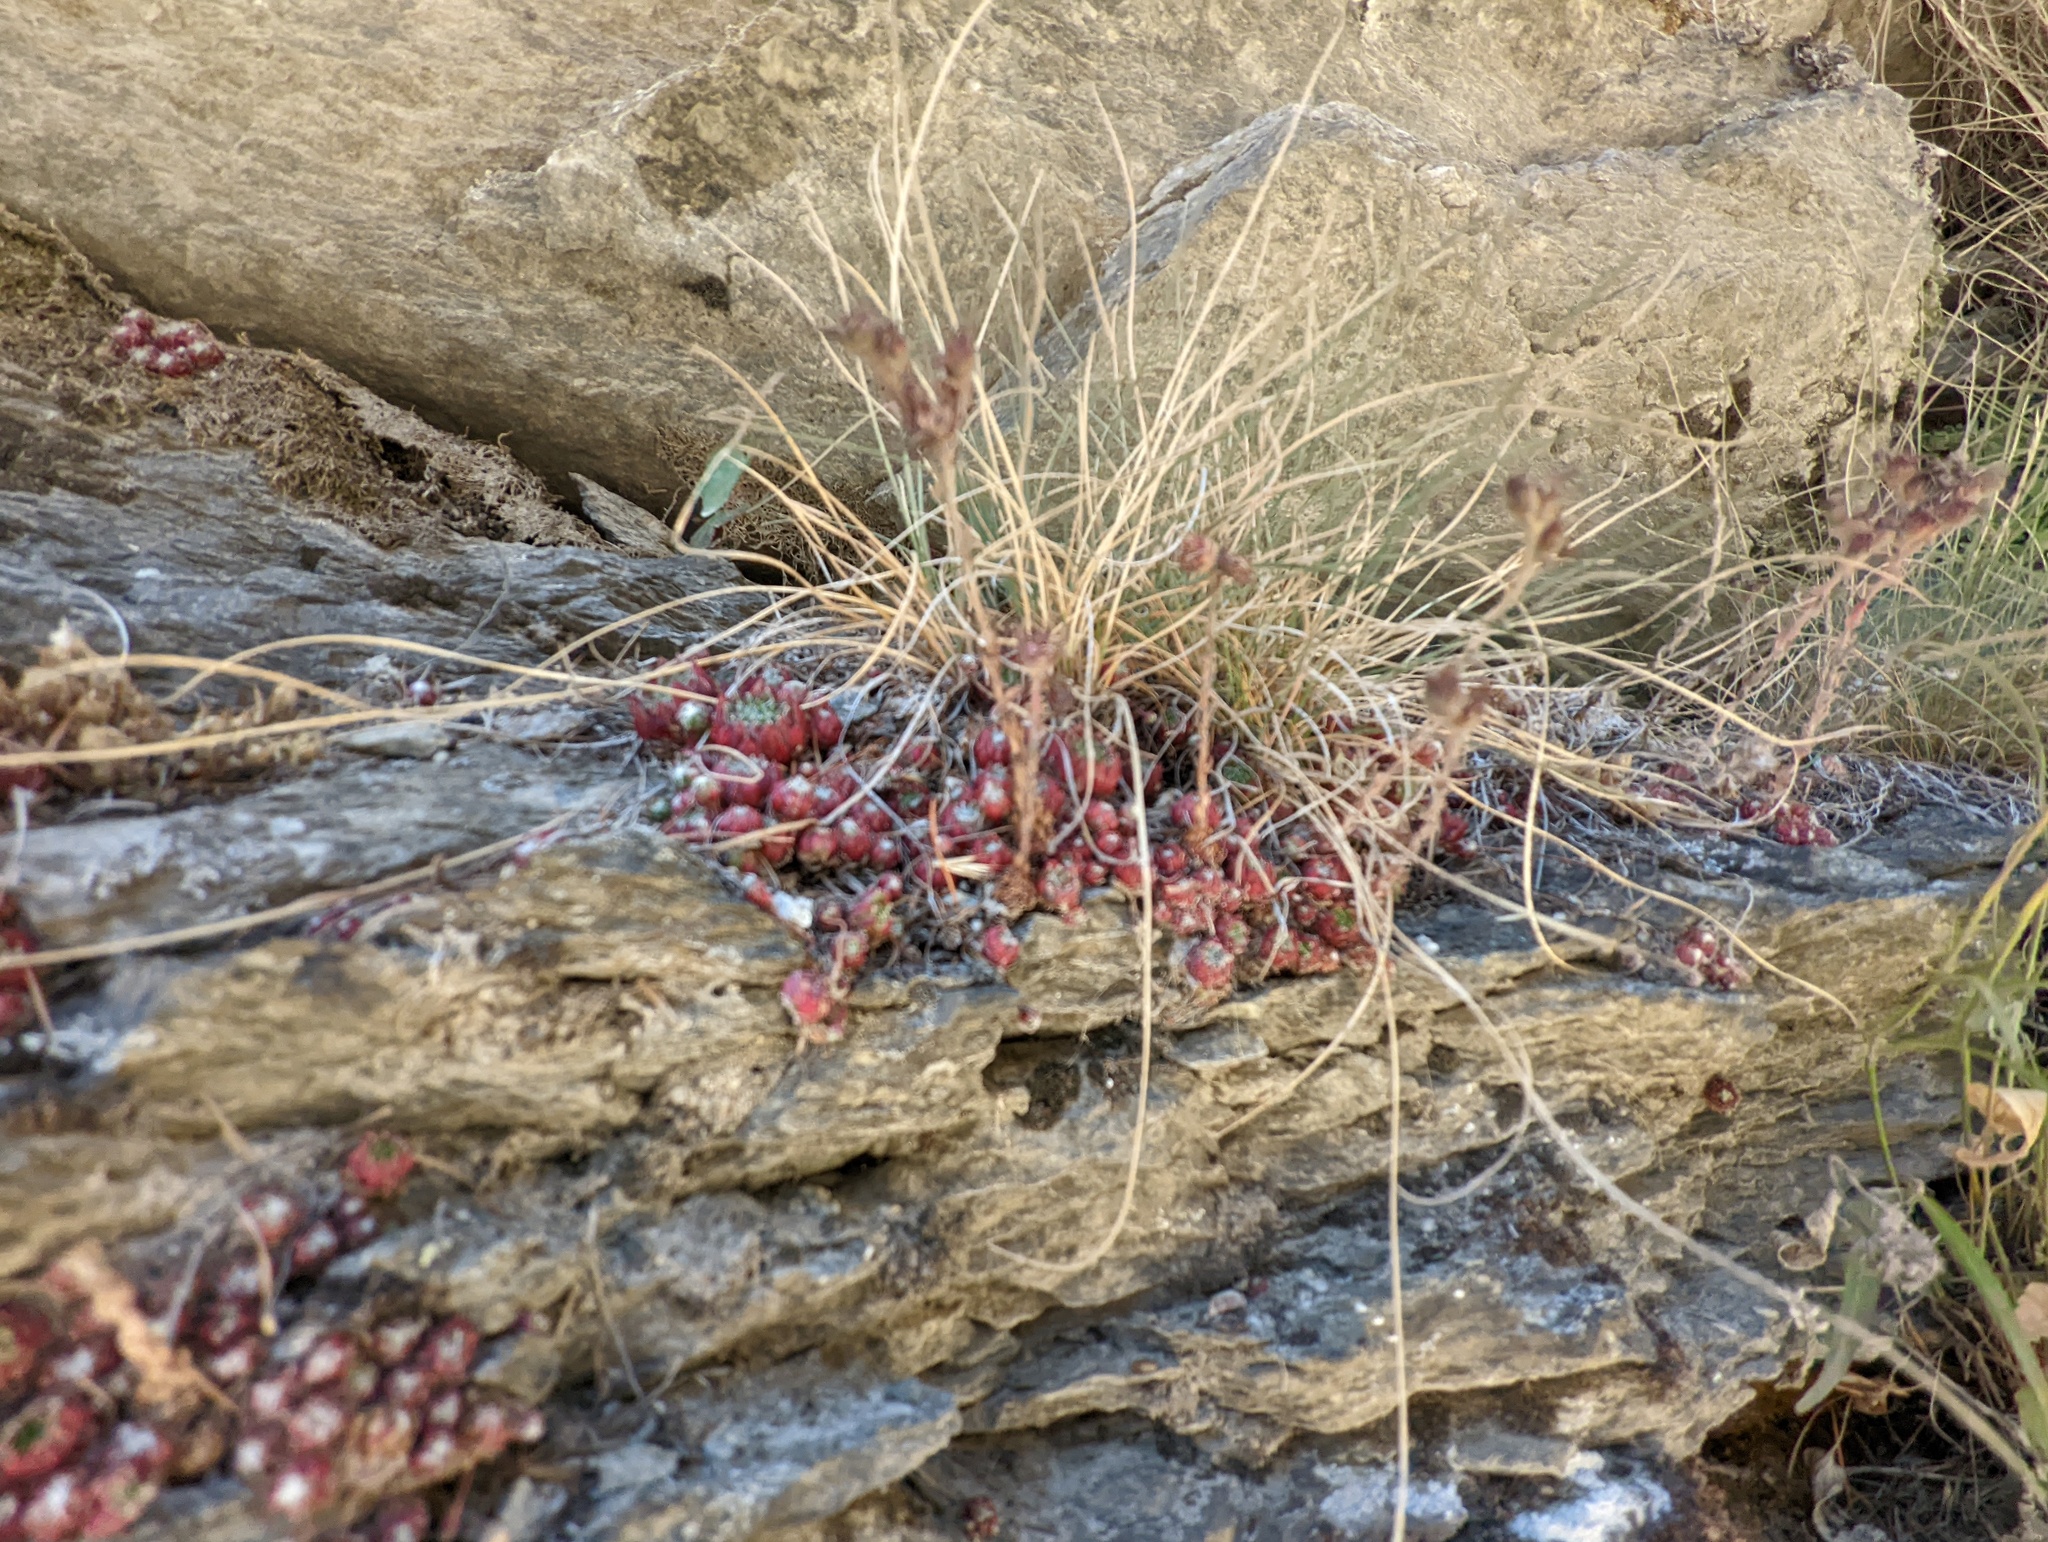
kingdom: Plantae
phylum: Tracheophyta
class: Magnoliopsida
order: Saxifragales
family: Crassulaceae
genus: Sempervivum
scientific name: Sempervivum arachnoideum
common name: Cobweb house-leek
